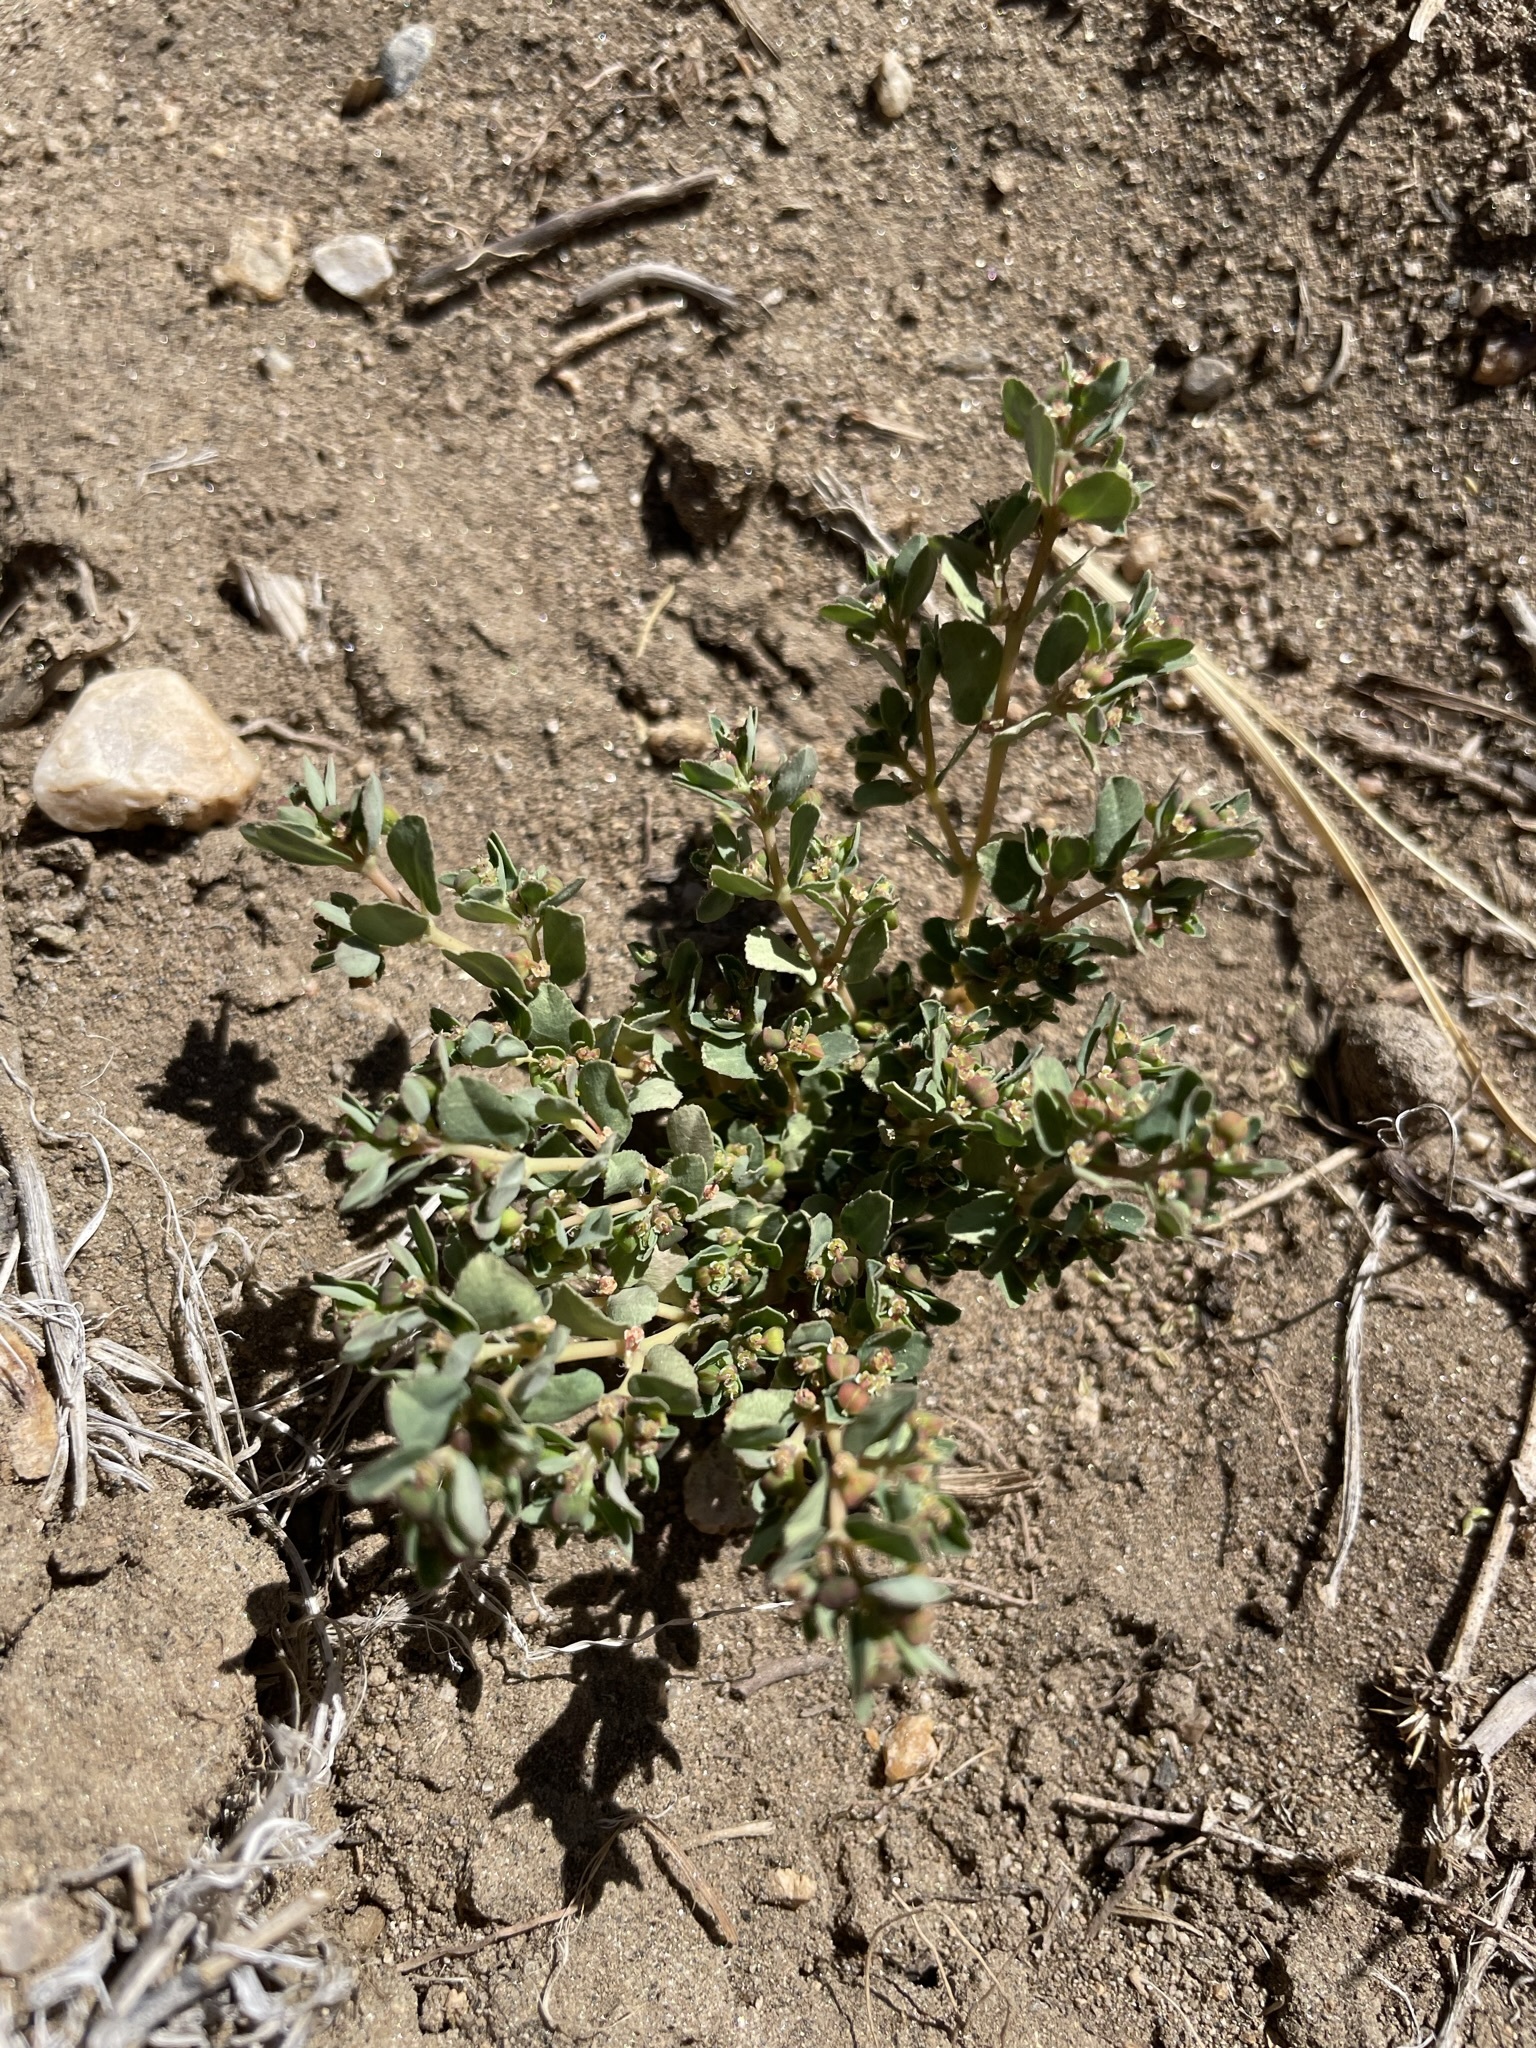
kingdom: Plantae
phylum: Tracheophyta
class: Magnoliopsida
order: Malpighiales
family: Euphorbiaceae
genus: Euphorbia
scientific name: Euphorbia serpillifolia
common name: Thyme-leaf spurge
